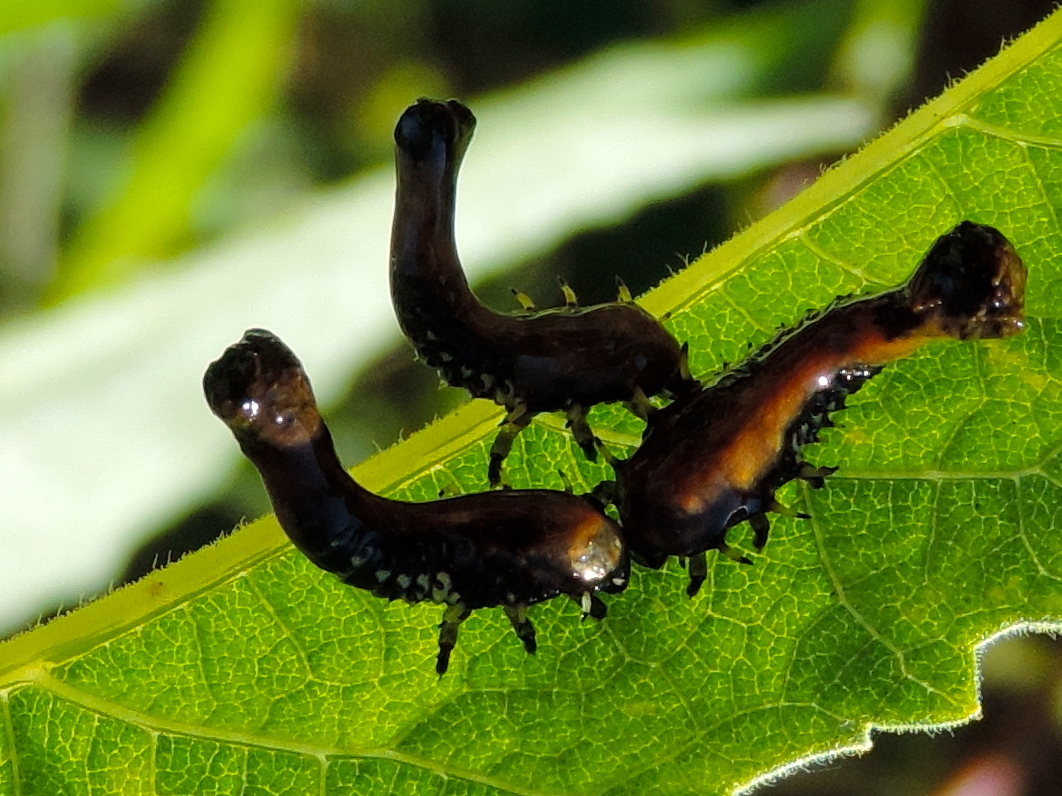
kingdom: Animalia
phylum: Arthropoda
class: Insecta
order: Coleoptera
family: Chrysomelidae
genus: Physonota
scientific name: Physonota
